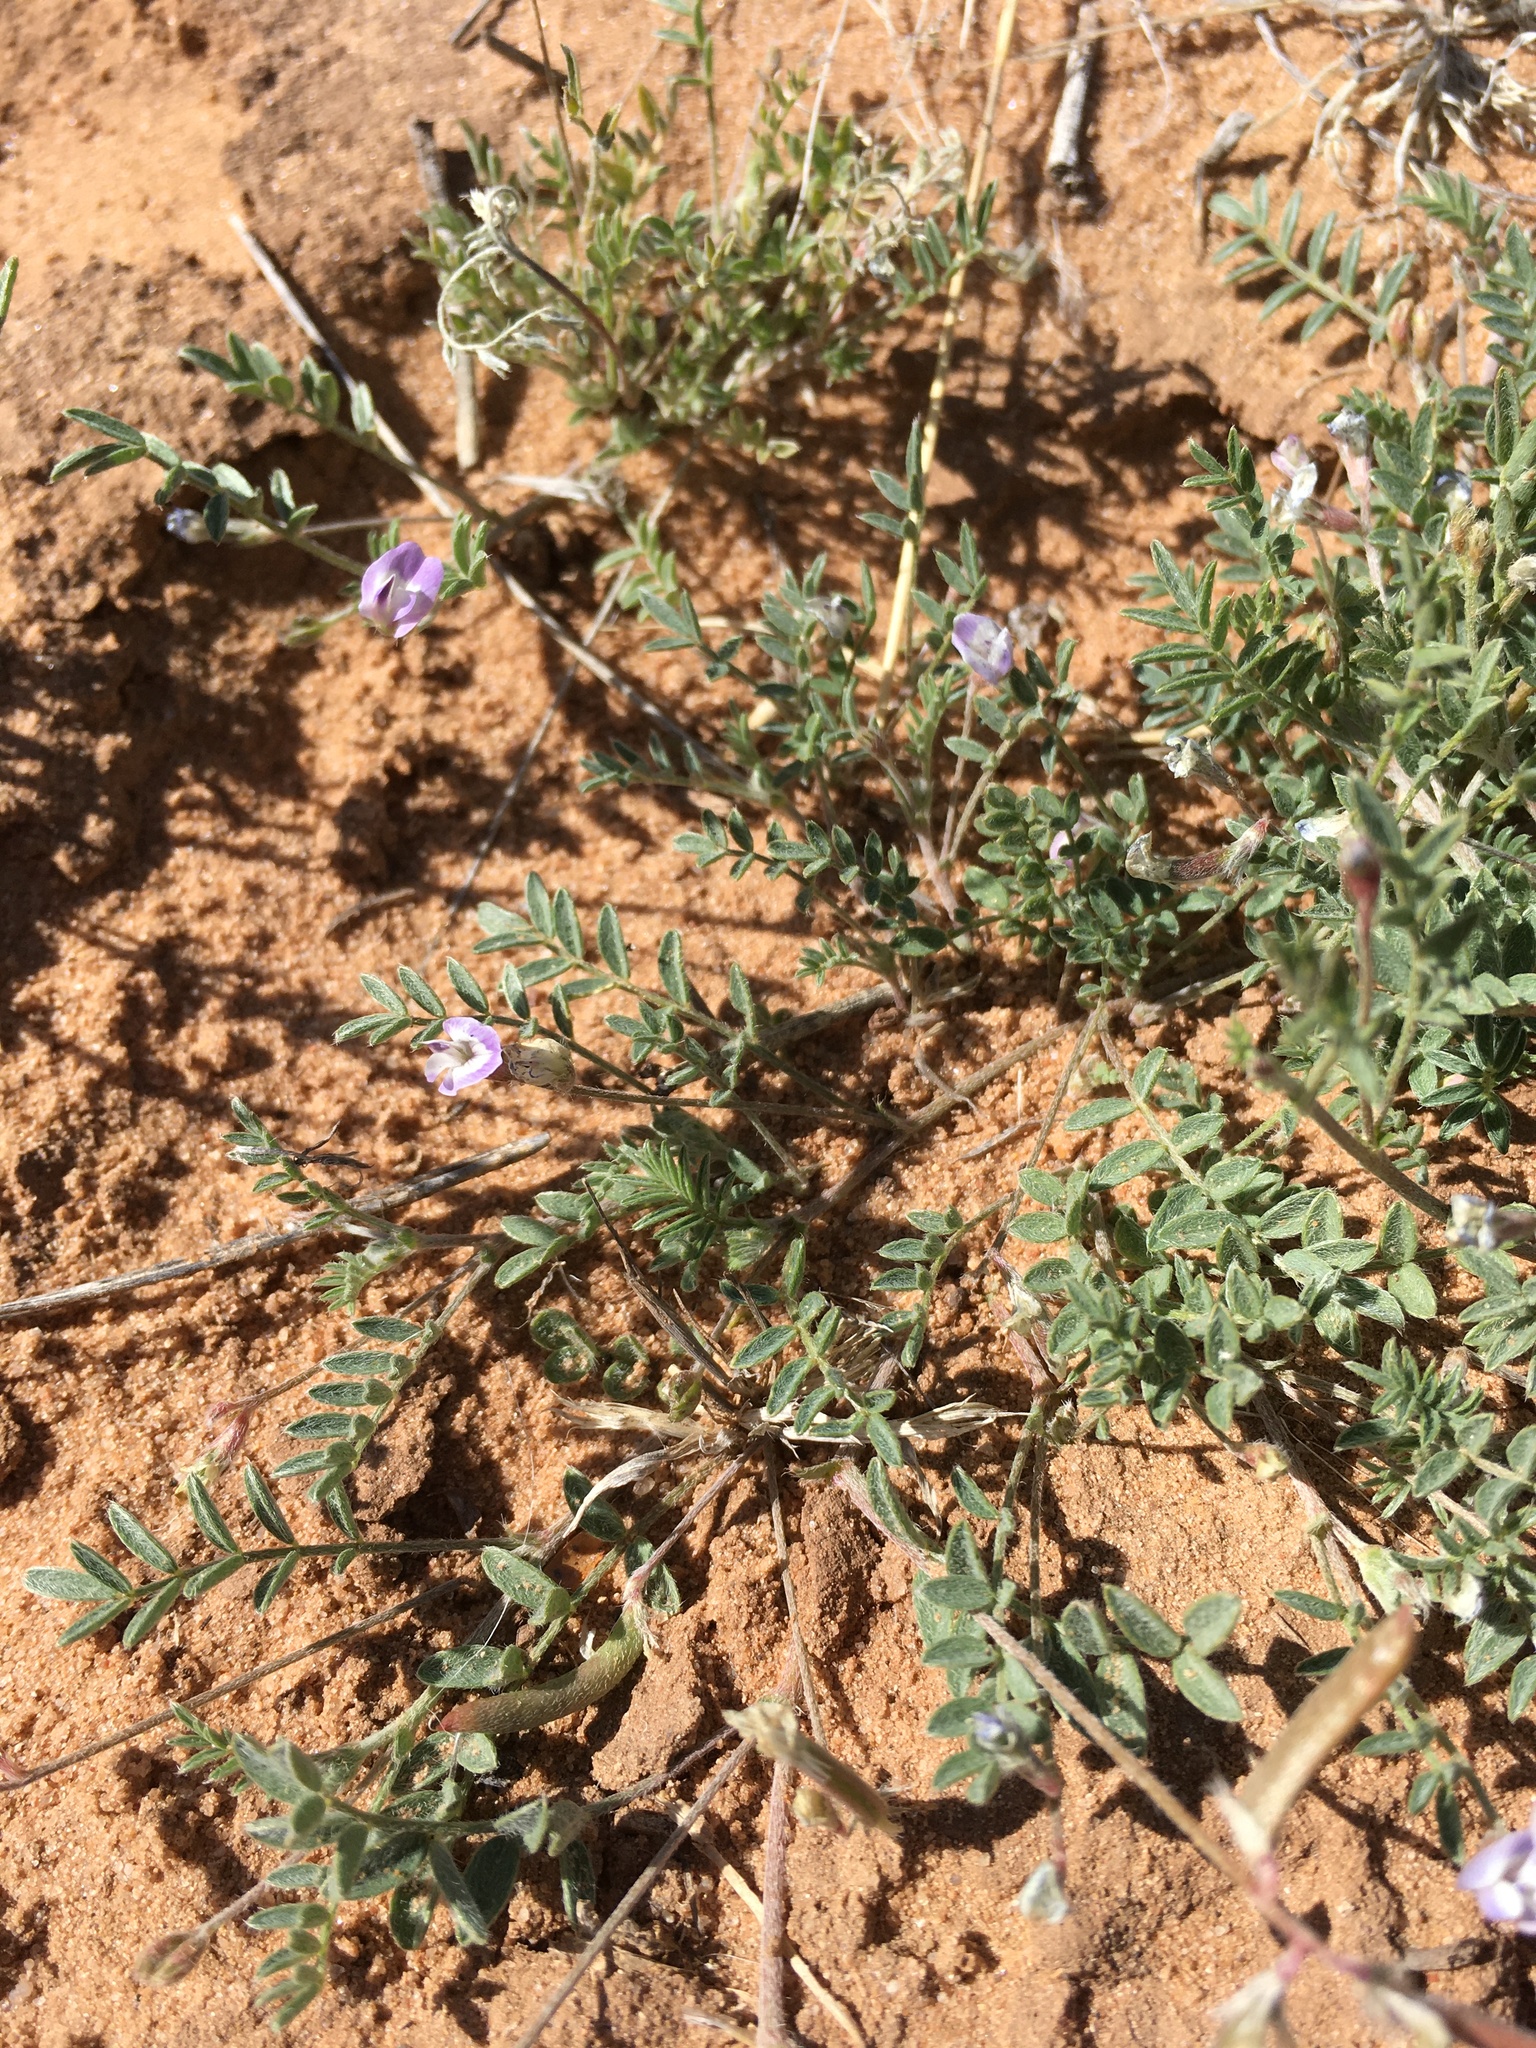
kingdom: Plantae
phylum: Tracheophyta
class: Magnoliopsida
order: Fabales
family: Fabaceae
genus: Astragalus
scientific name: Astragalus nuttallianus
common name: Smallflowered milkvetch
